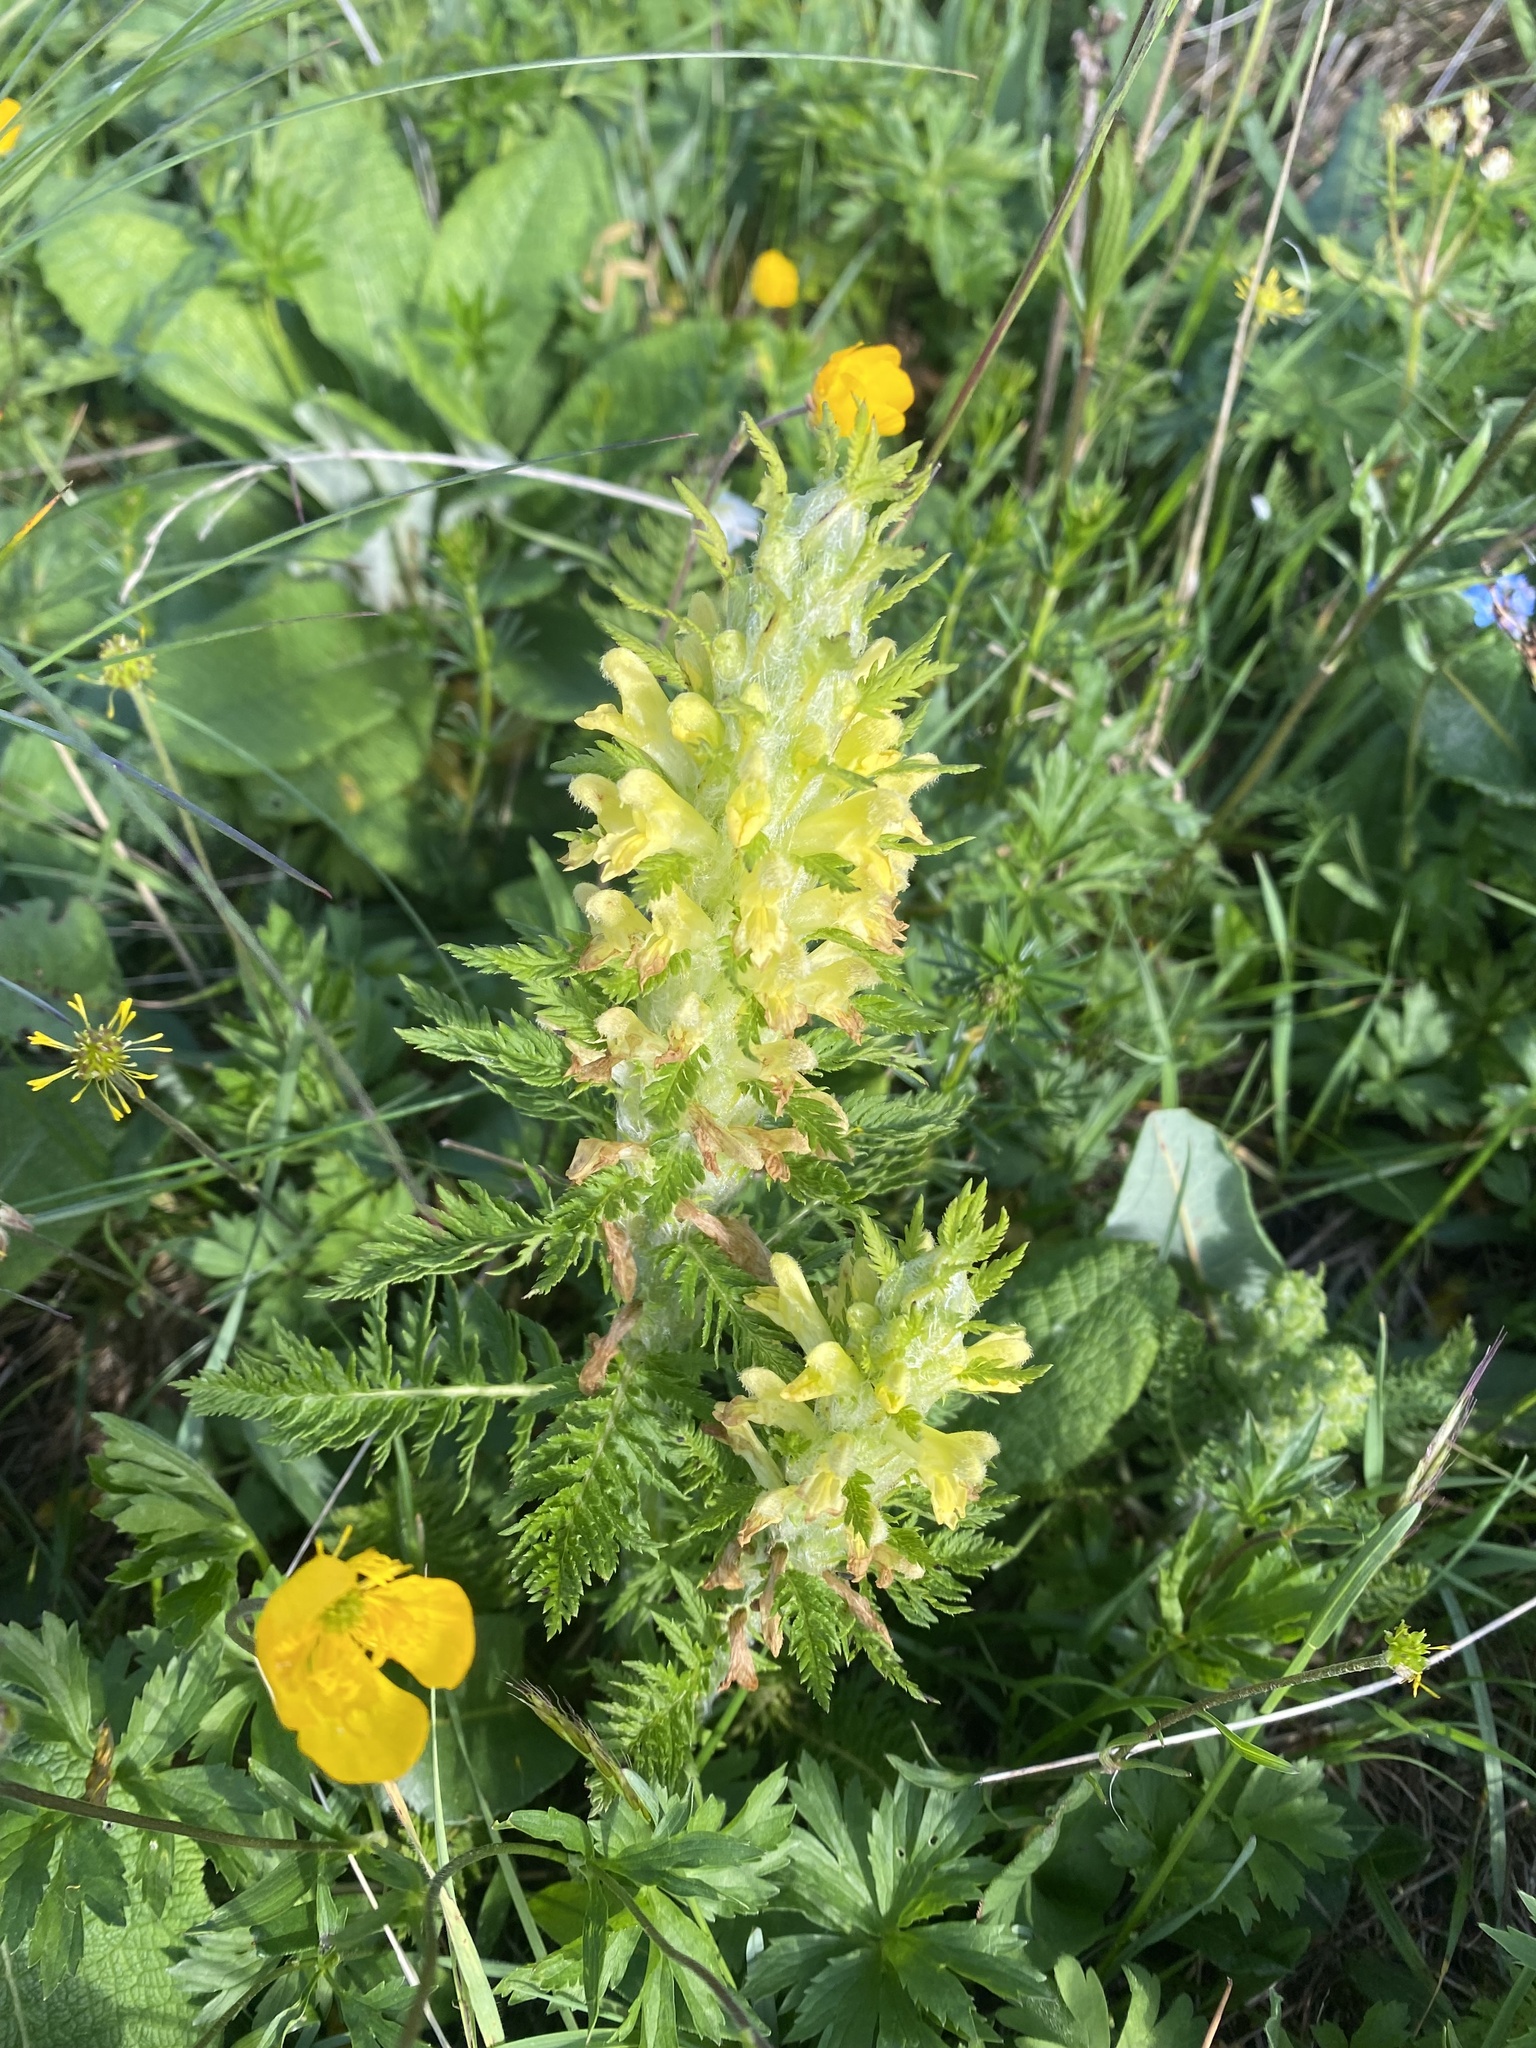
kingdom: Plantae
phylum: Tracheophyta
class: Magnoliopsida
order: Lamiales
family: Orobanchaceae
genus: Pedicularis
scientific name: Pedicularis condensata
